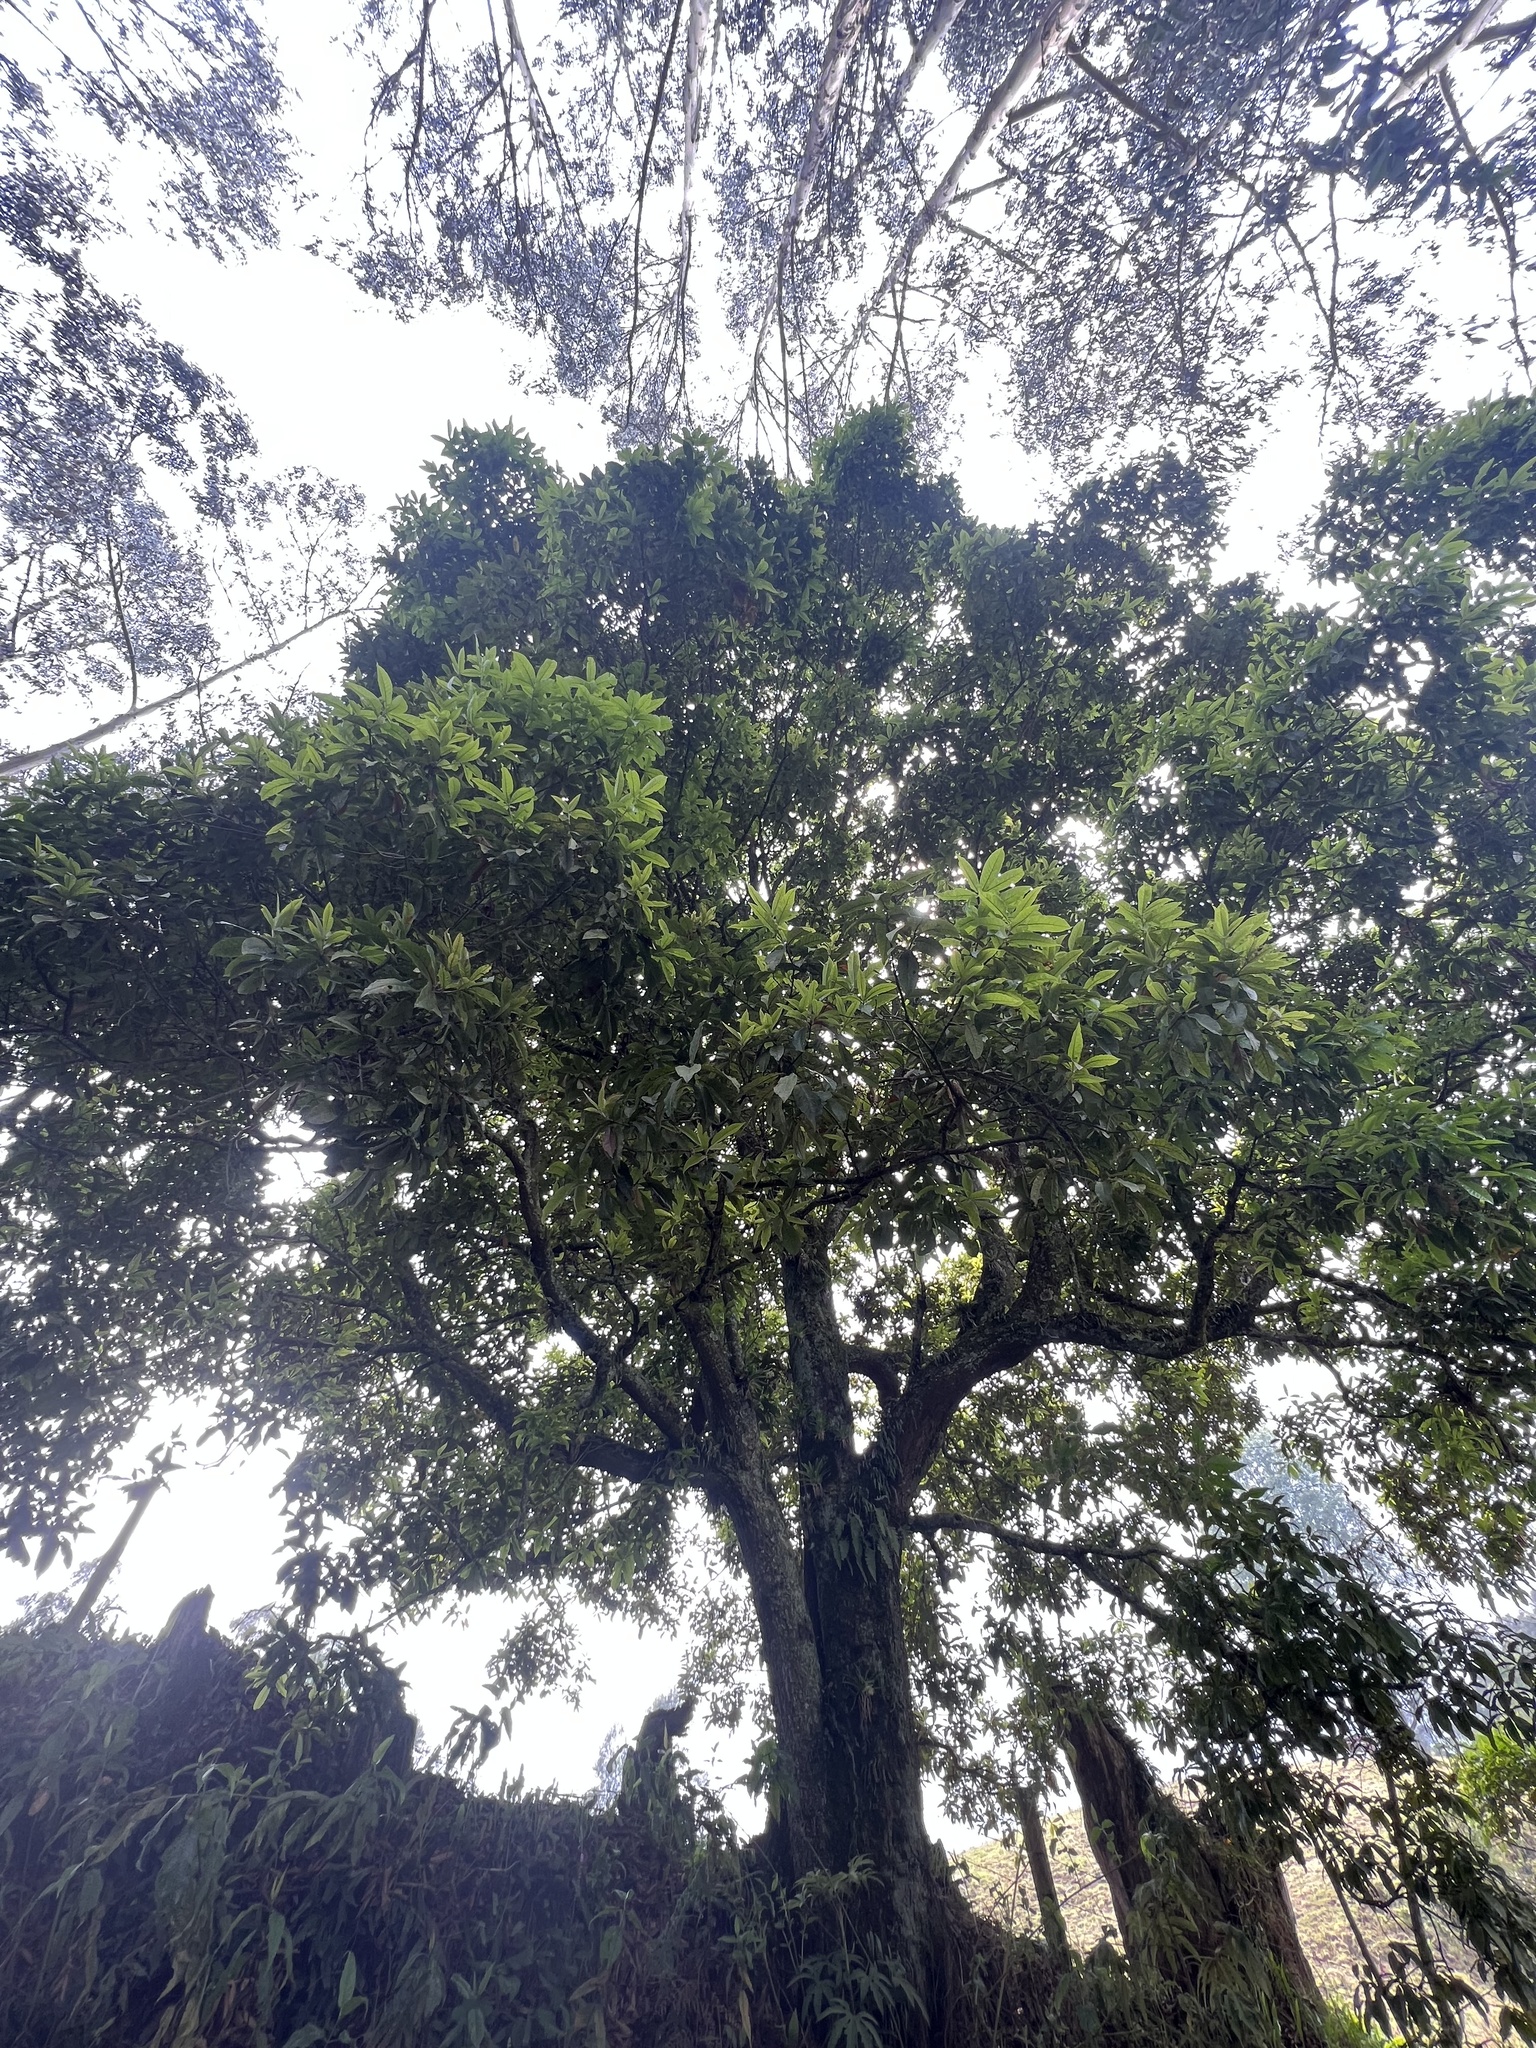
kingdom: Plantae
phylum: Tracheophyta
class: Magnoliopsida
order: Fagales
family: Fagaceae
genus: Quercus
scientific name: Quercus humboldtii
